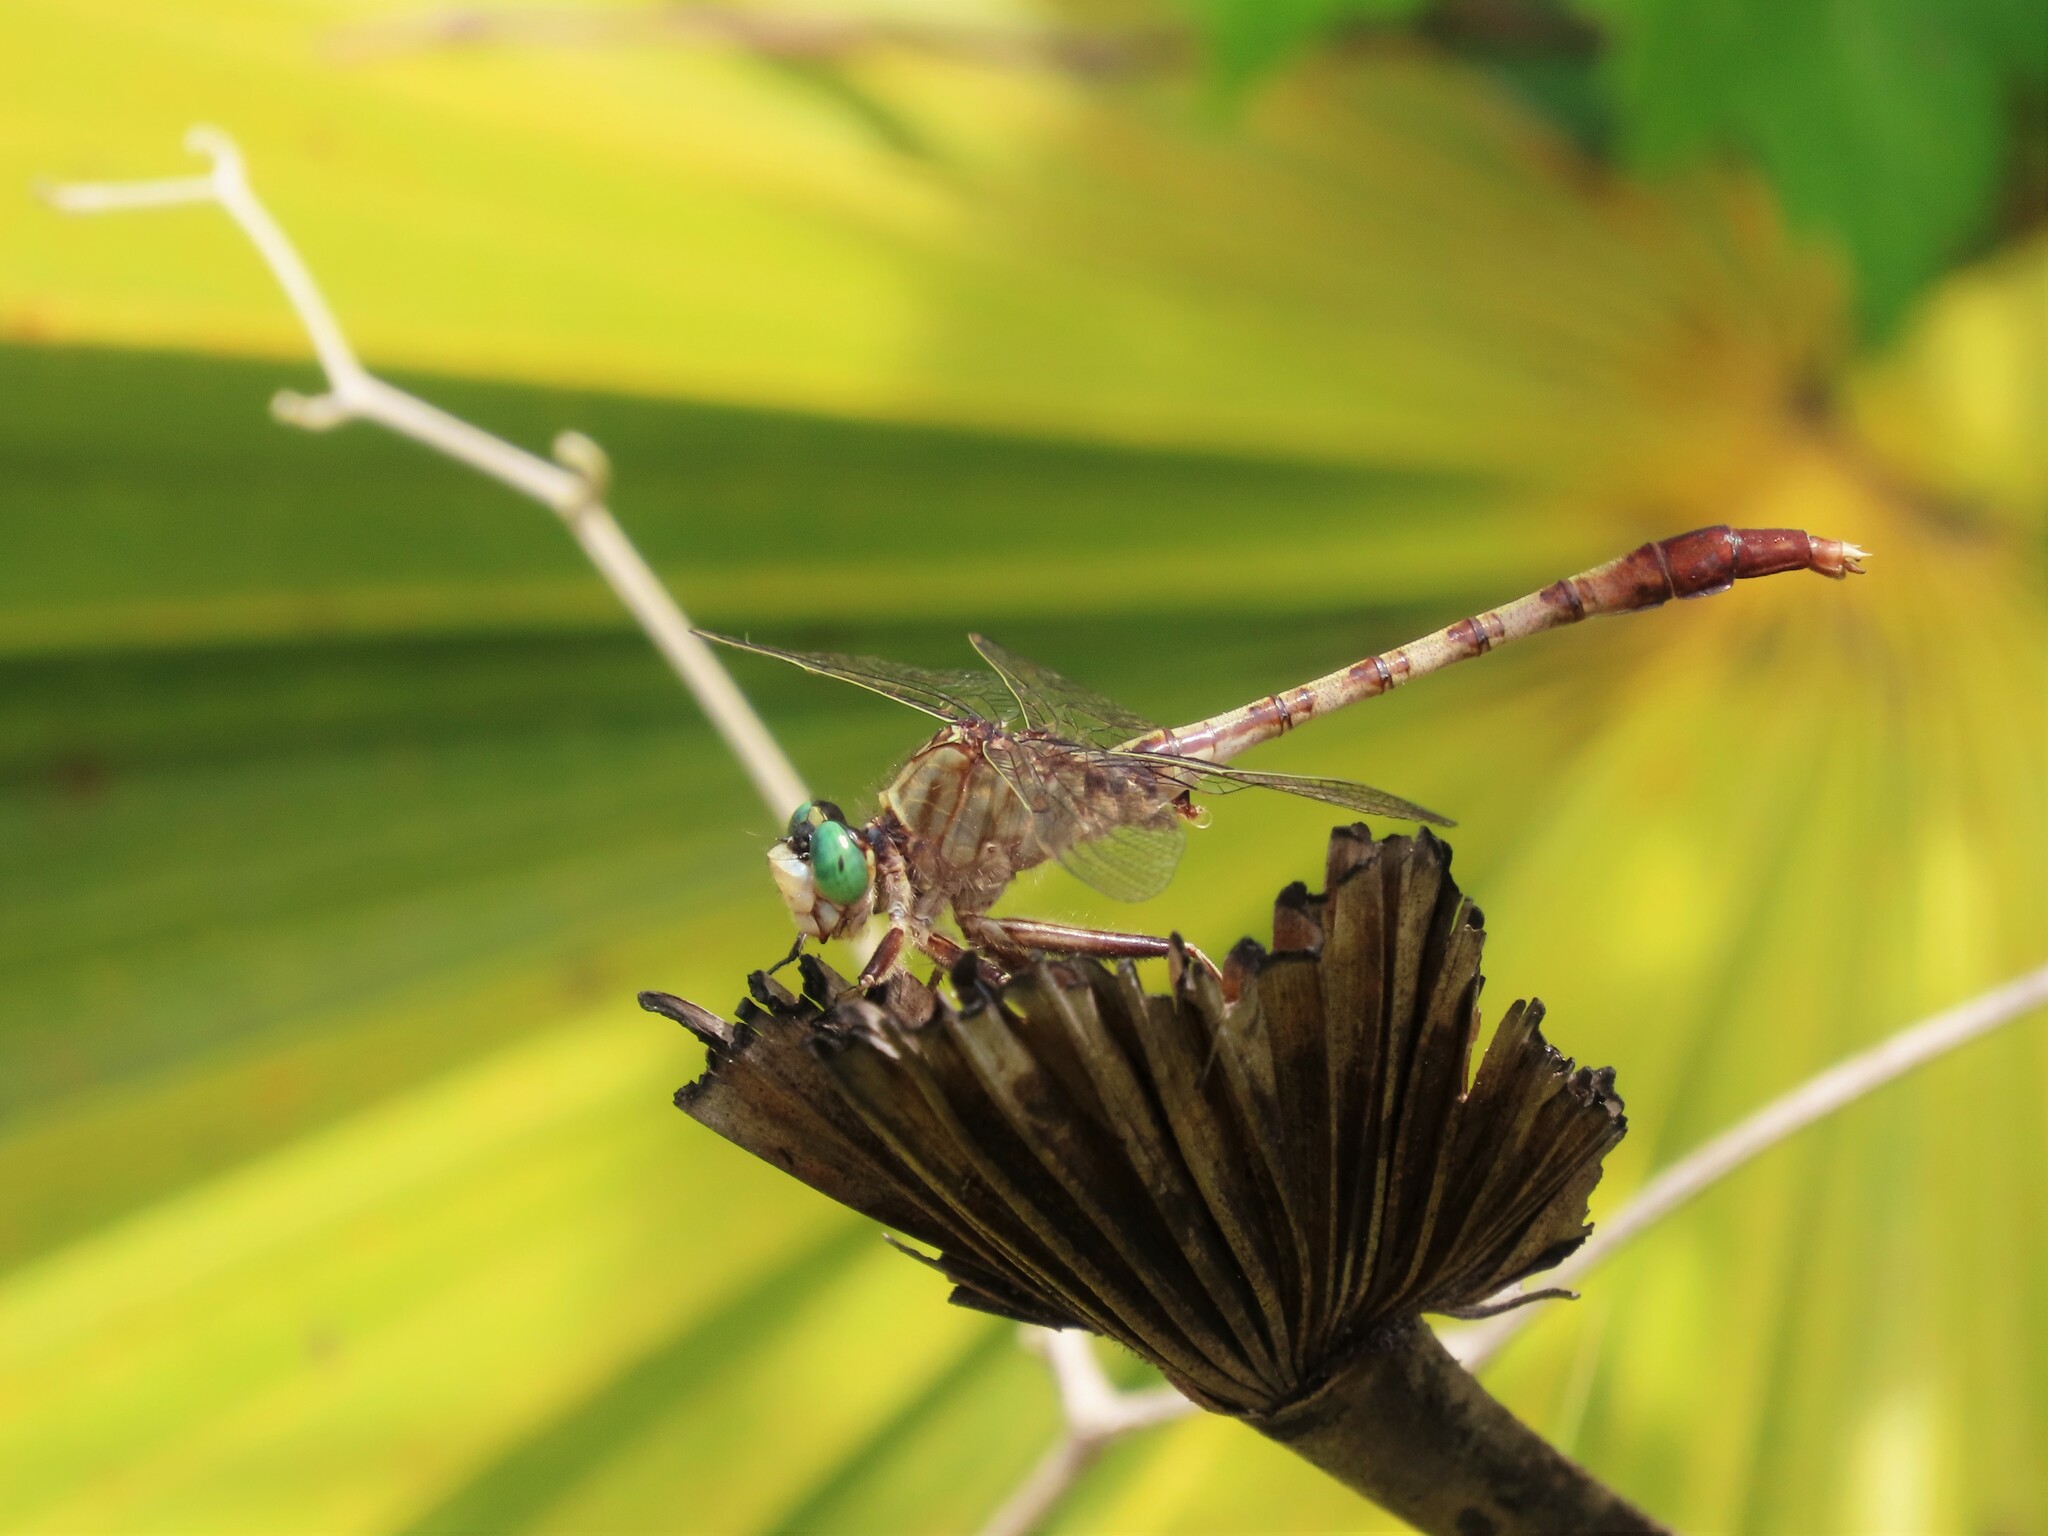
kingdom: Animalia
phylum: Arthropoda
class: Insecta
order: Odonata
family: Gomphidae
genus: Arigomphus
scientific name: Arigomphus pallidus
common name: Gray-green clubtail
